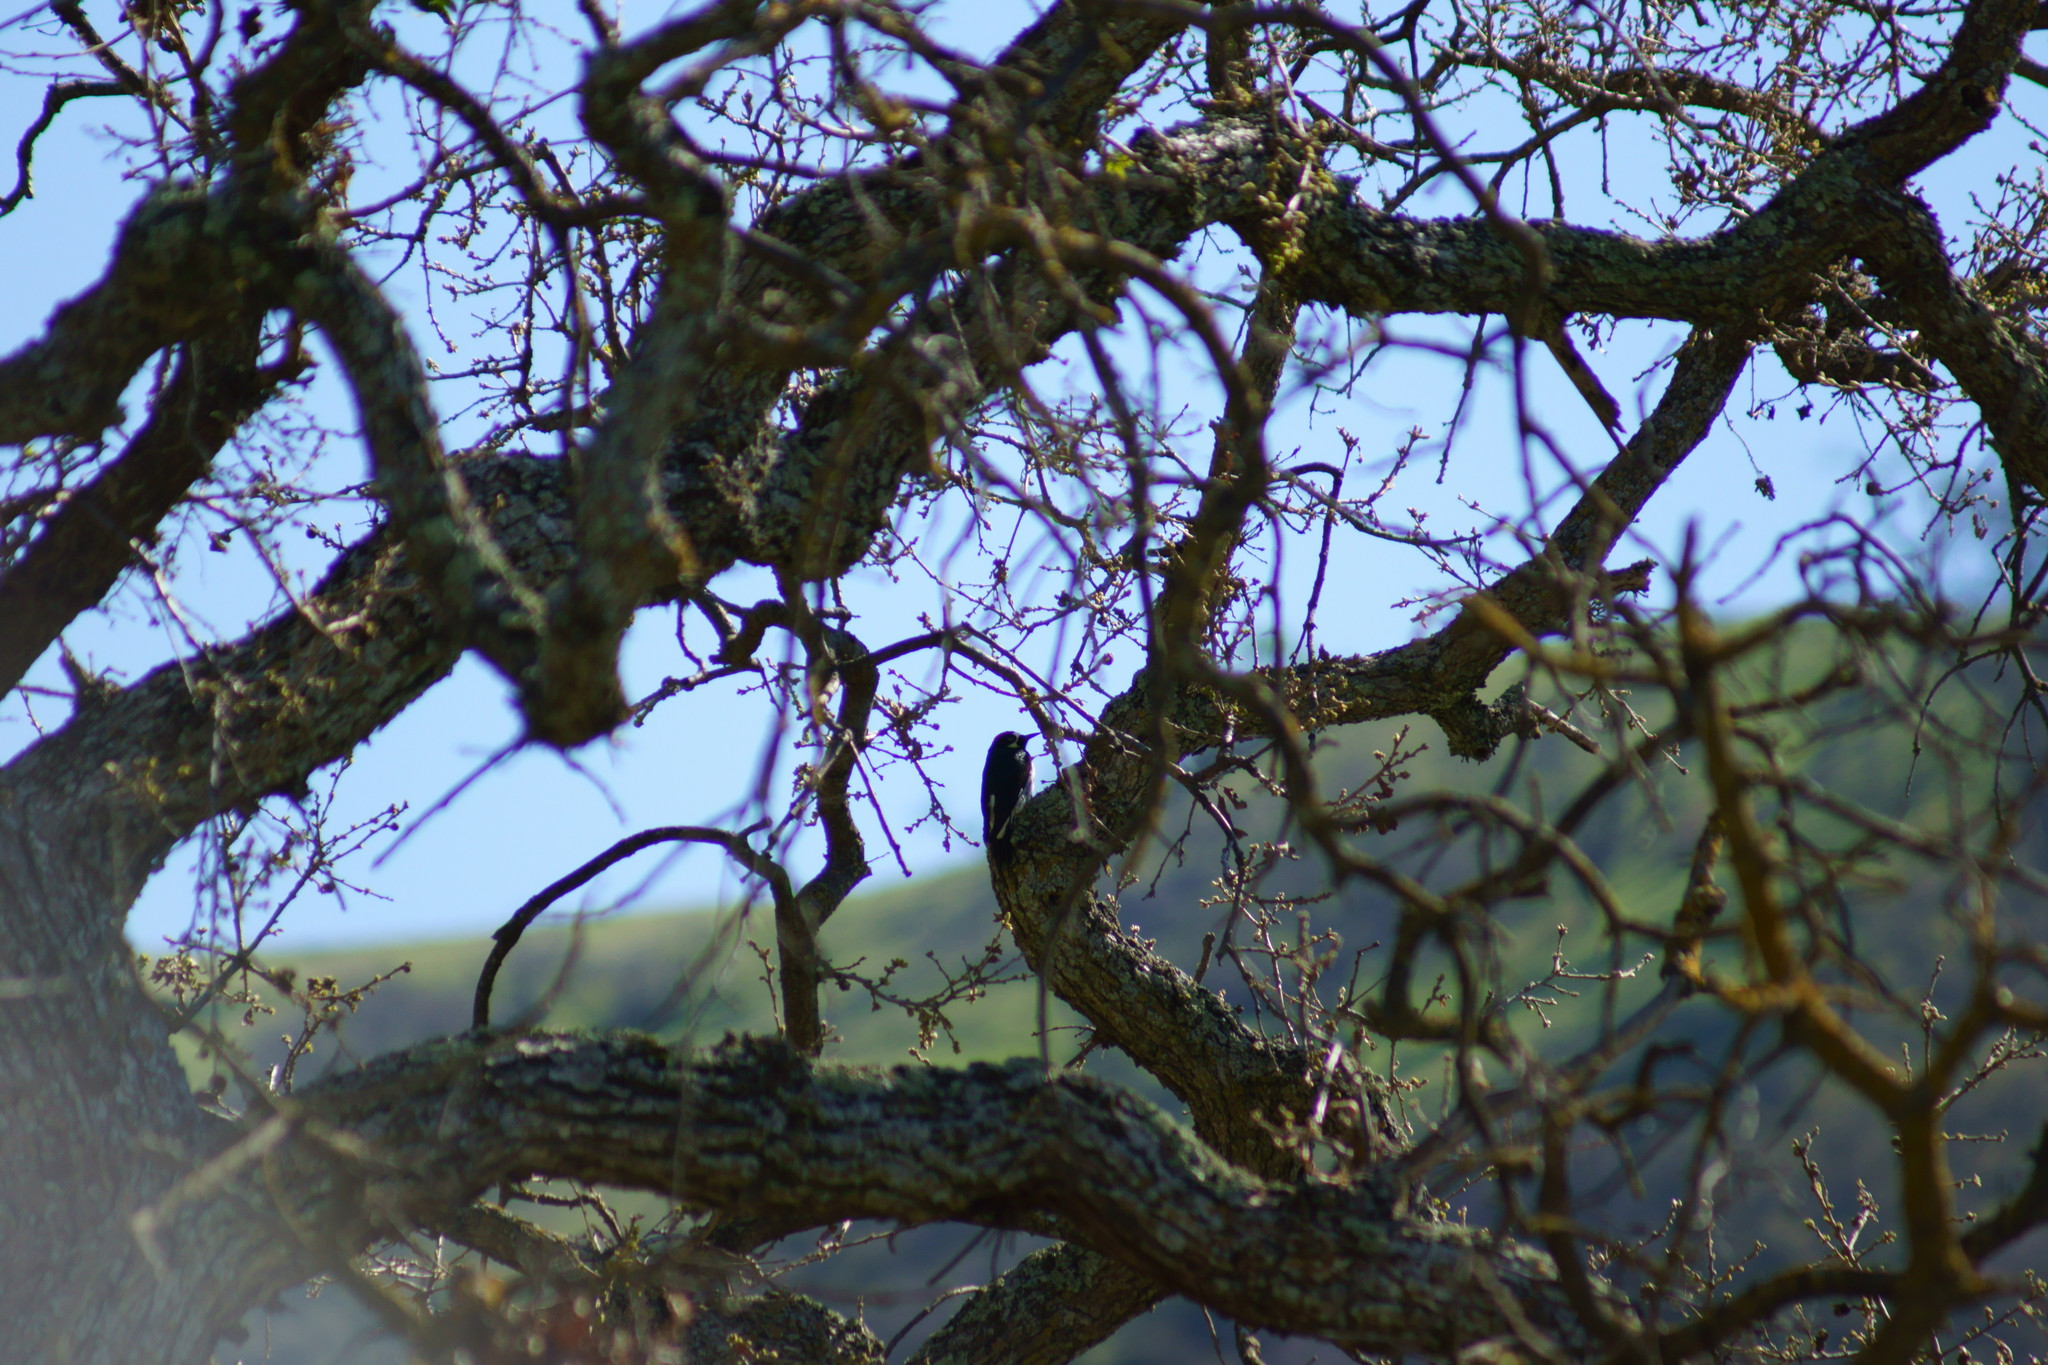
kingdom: Animalia
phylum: Chordata
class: Aves
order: Piciformes
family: Picidae
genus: Melanerpes
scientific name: Melanerpes formicivorus
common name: Acorn woodpecker
